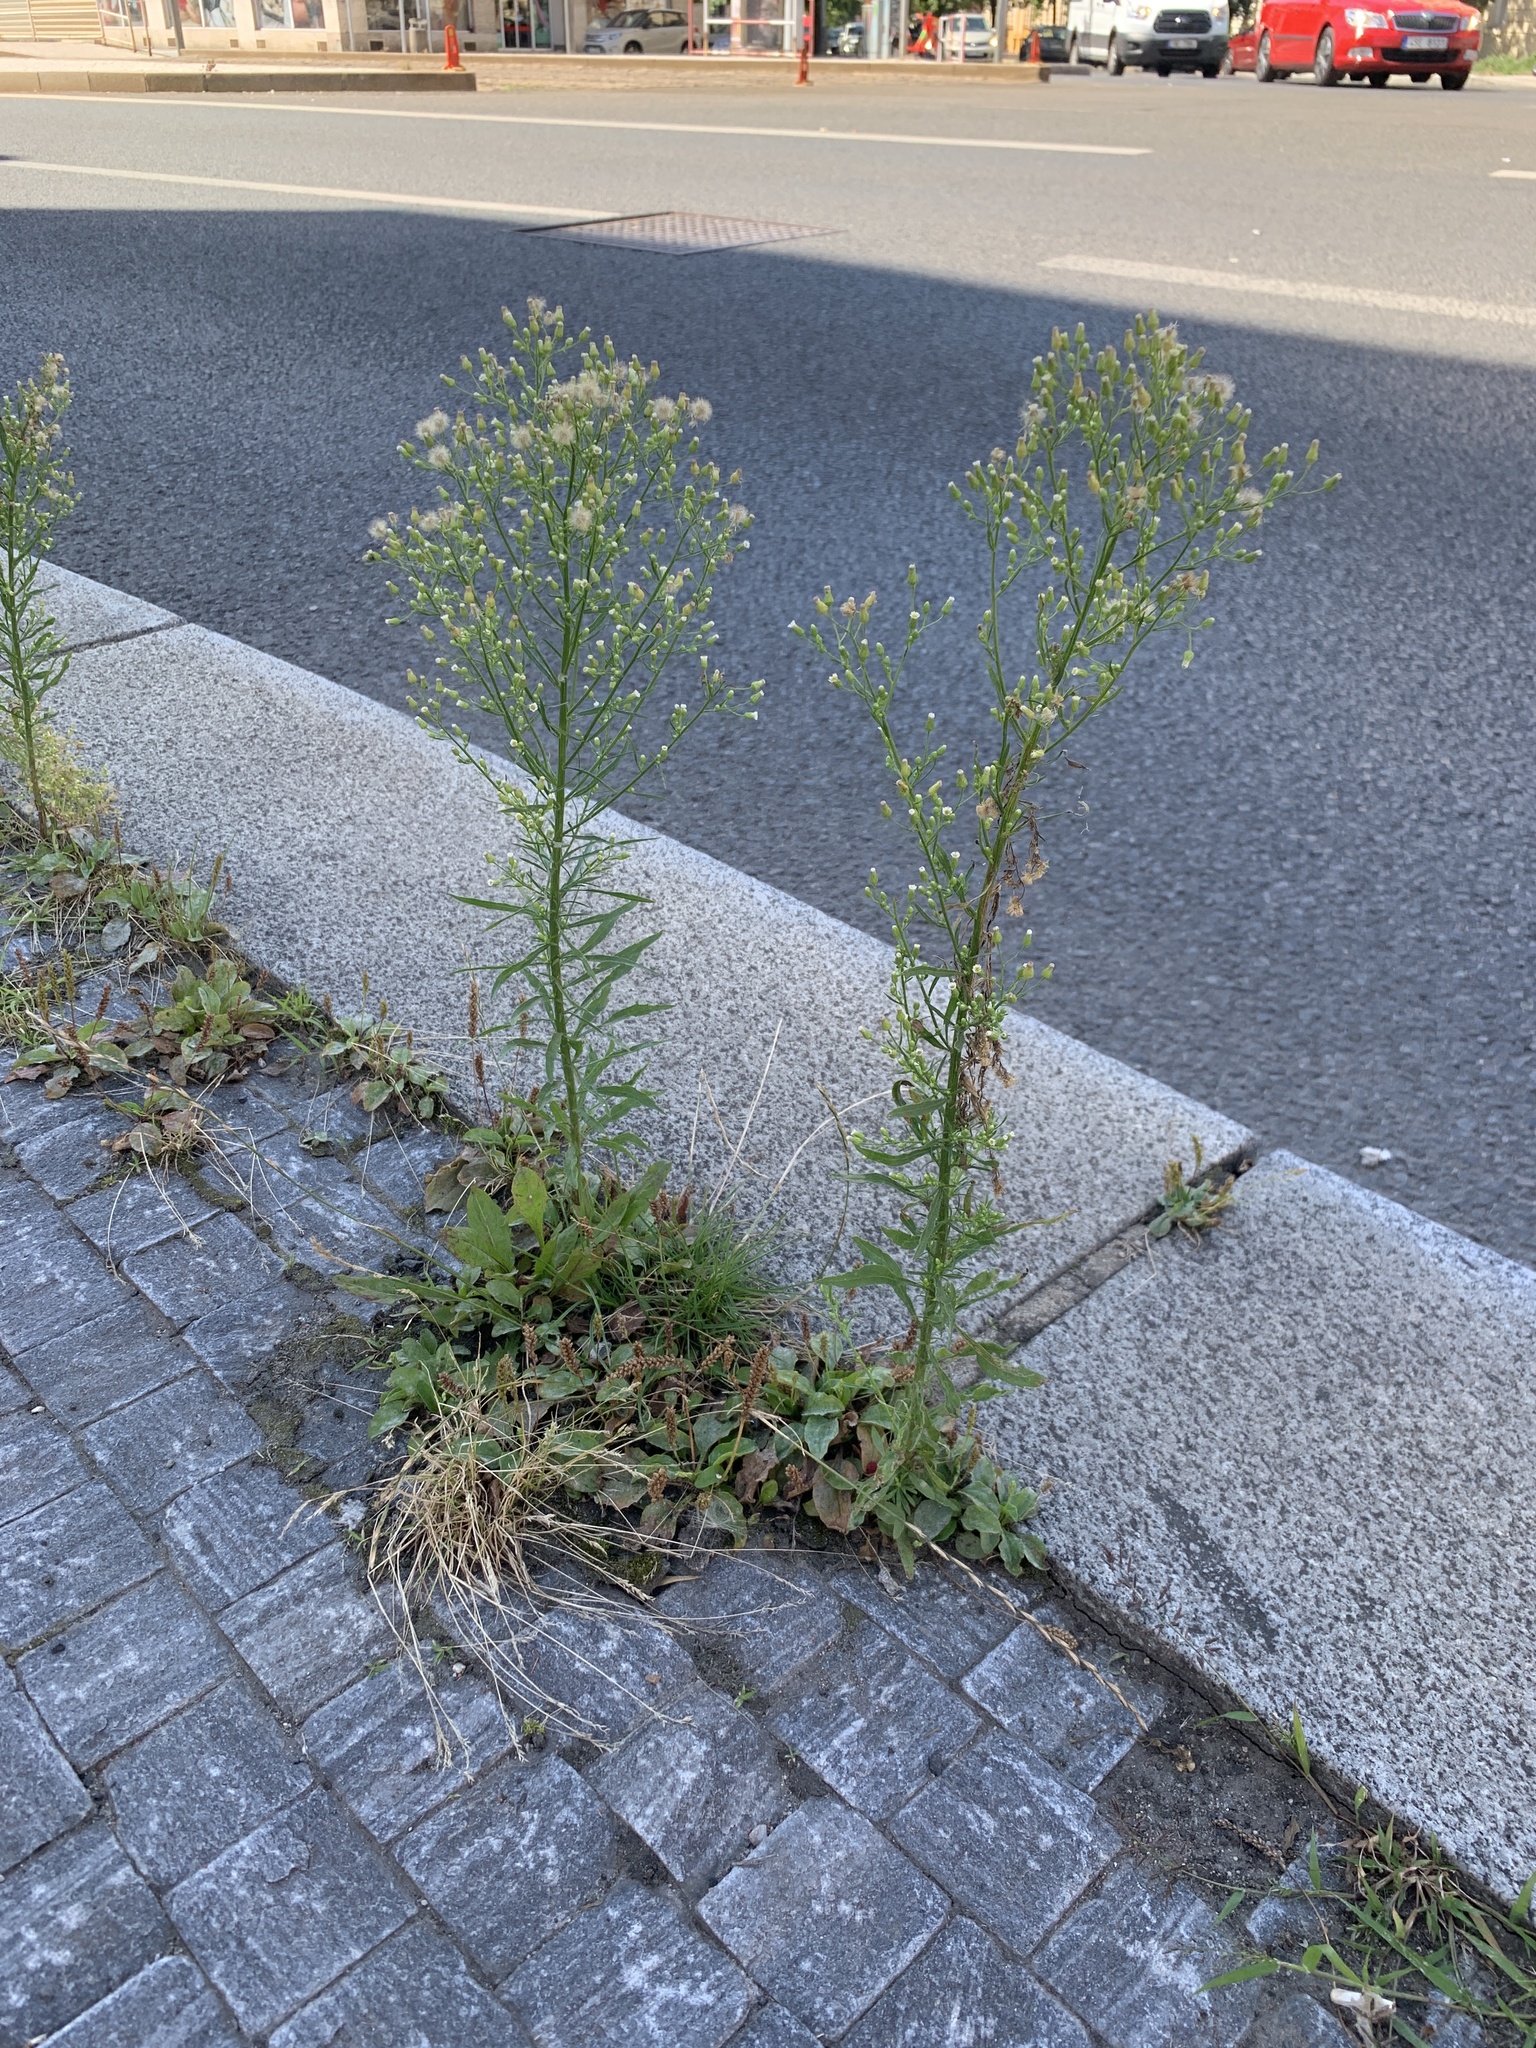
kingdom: Plantae
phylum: Tracheophyta
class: Magnoliopsida
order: Asterales
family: Asteraceae
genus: Erigeron
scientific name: Erigeron canadensis
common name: Canadian fleabane
